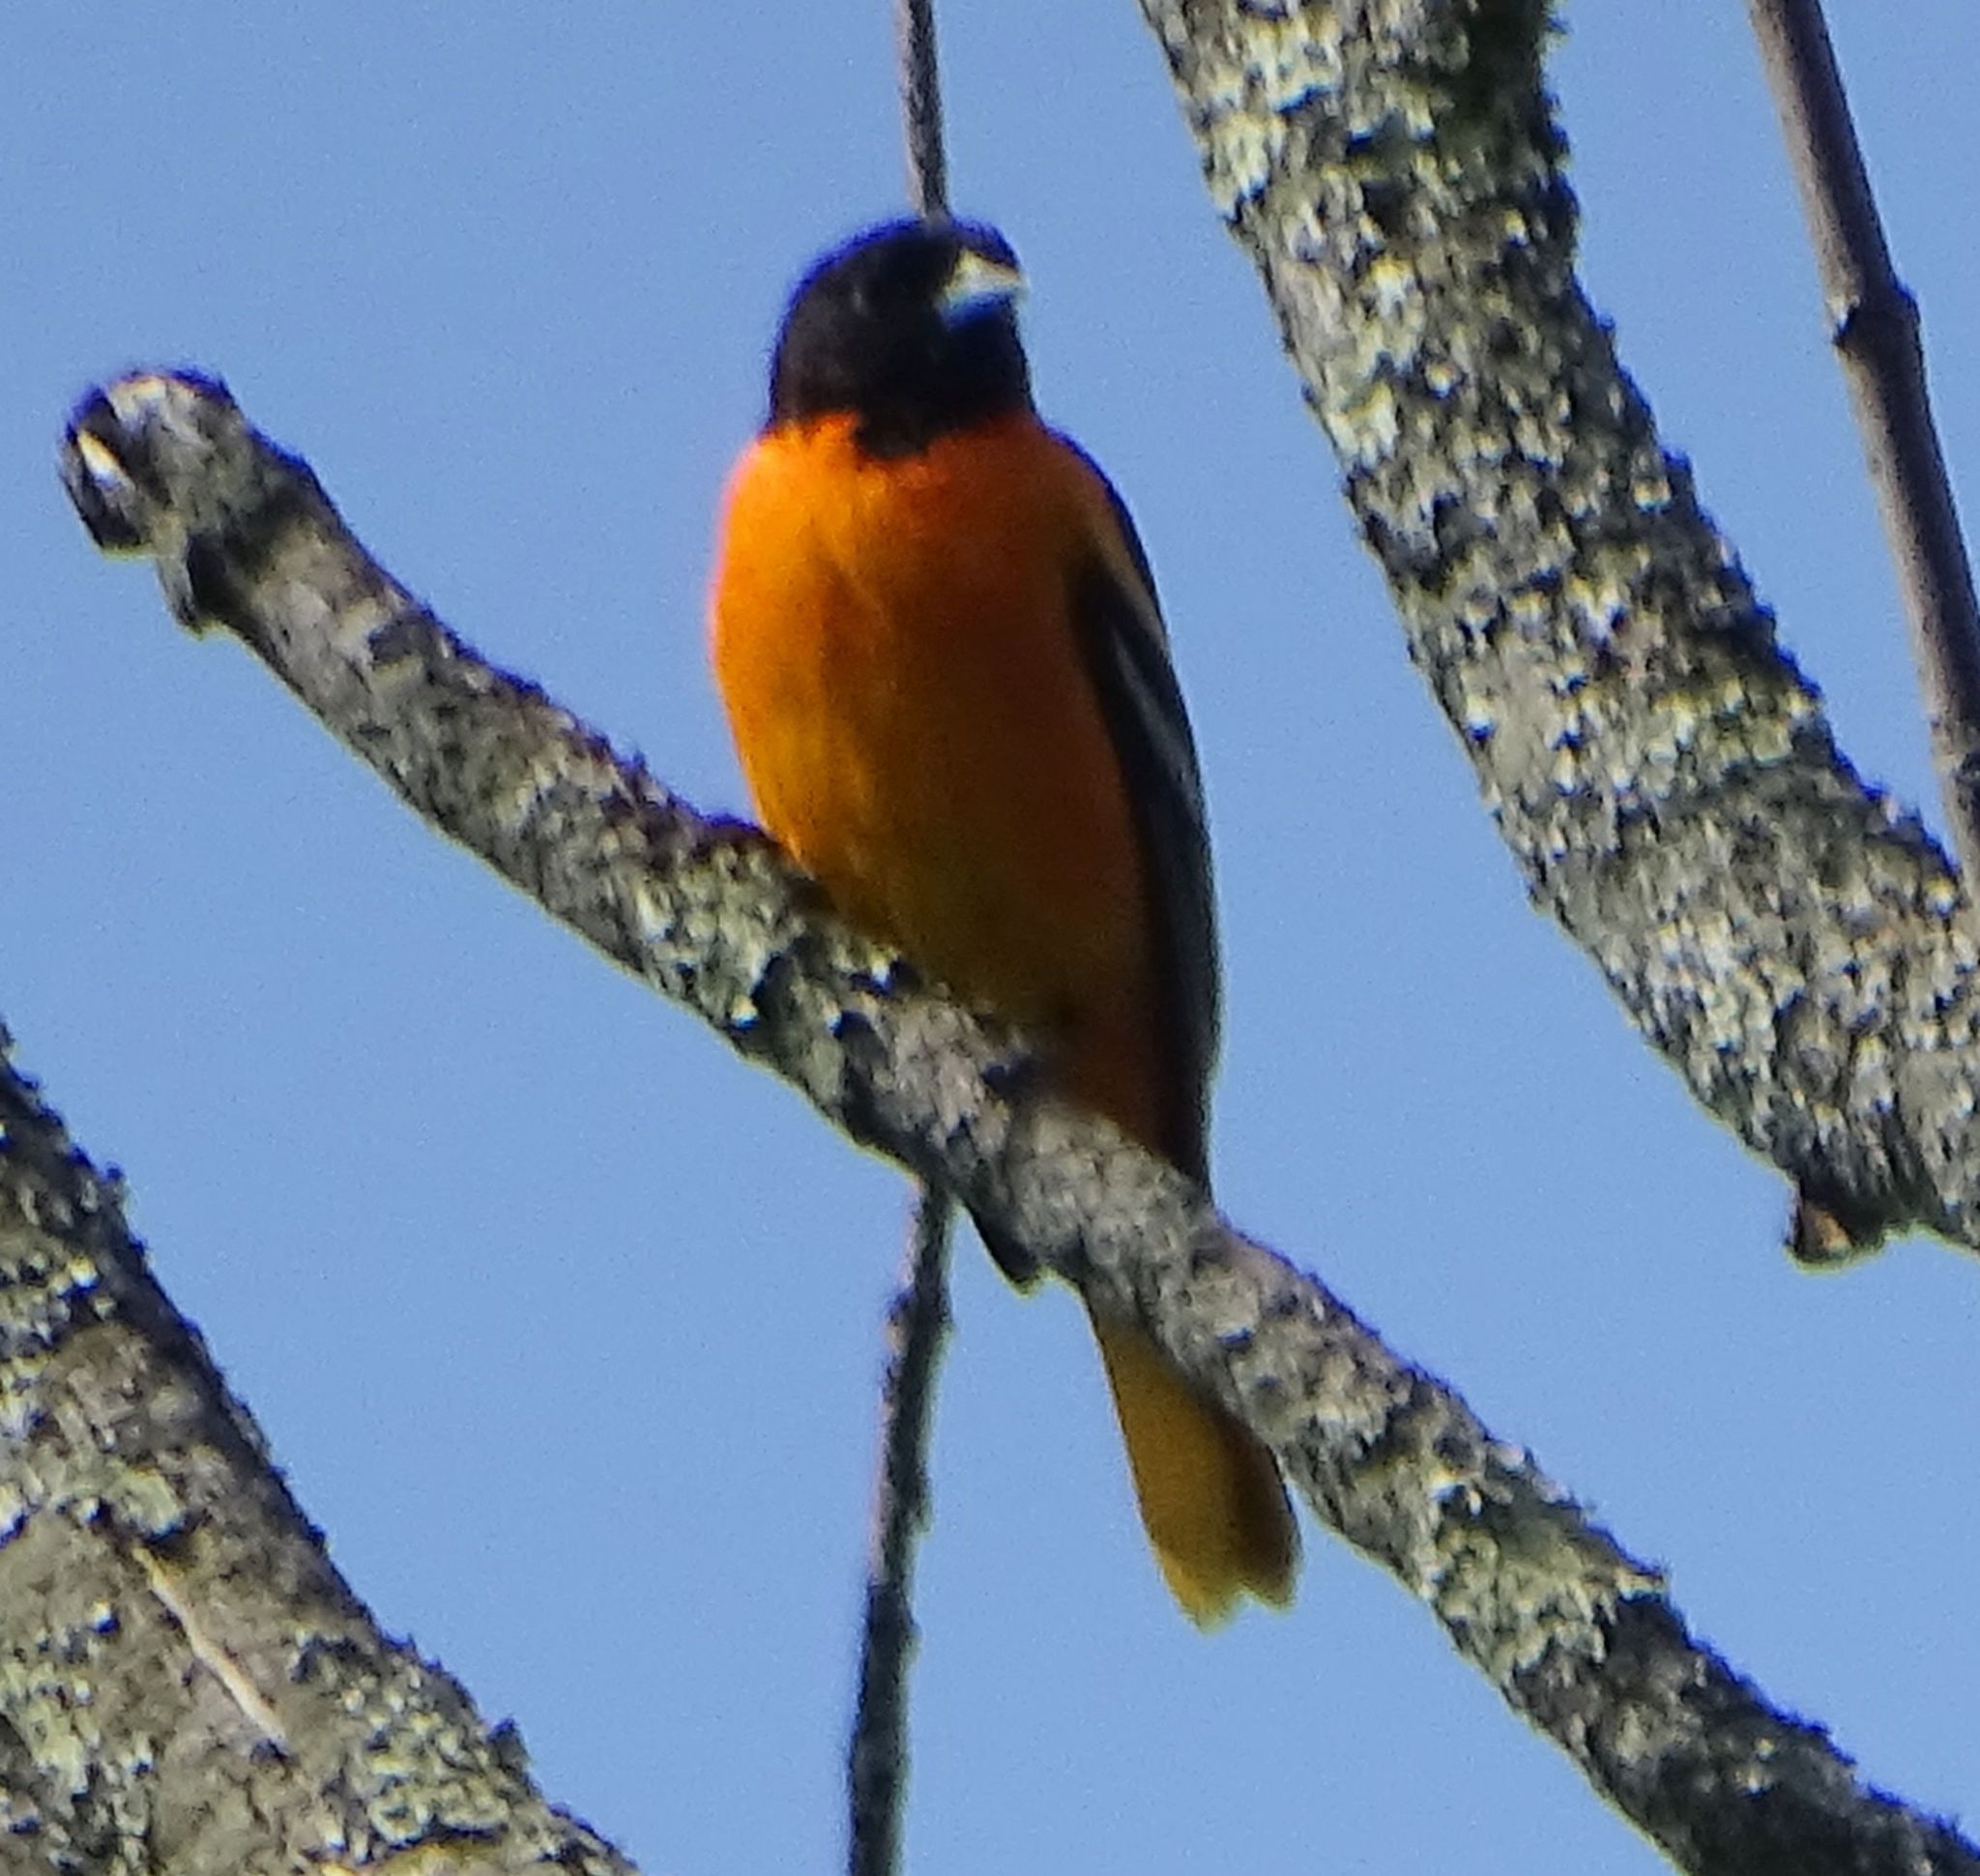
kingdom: Animalia
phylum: Chordata
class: Aves
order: Passeriformes
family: Icteridae
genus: Icterus
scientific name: Icterus galbula
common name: Baltimore oriole
